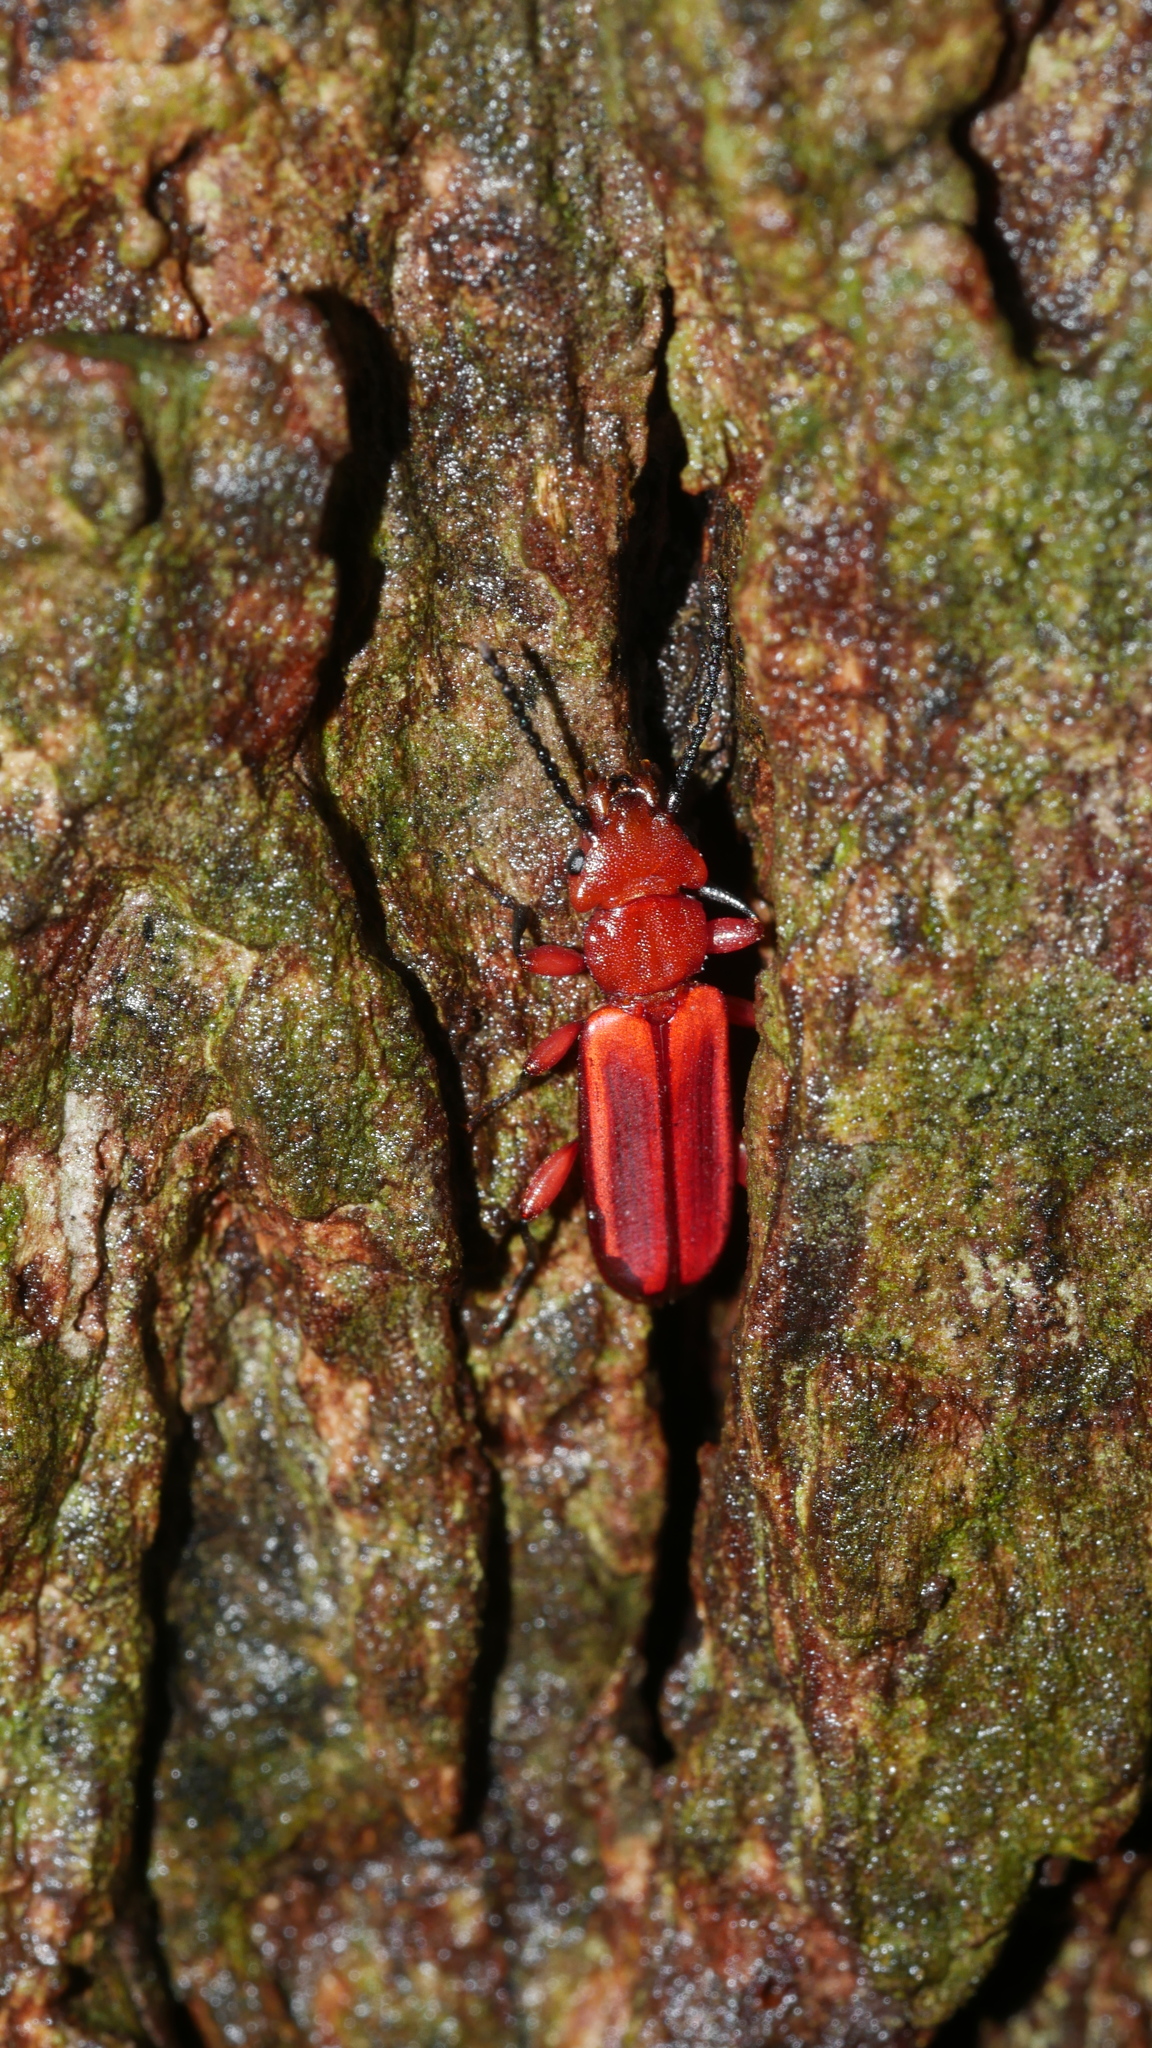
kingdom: Animalia
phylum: Arthropoda
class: Insecta
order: Coleoptera
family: Cucujidae
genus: Cucujus
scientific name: Cucujus clavipes
